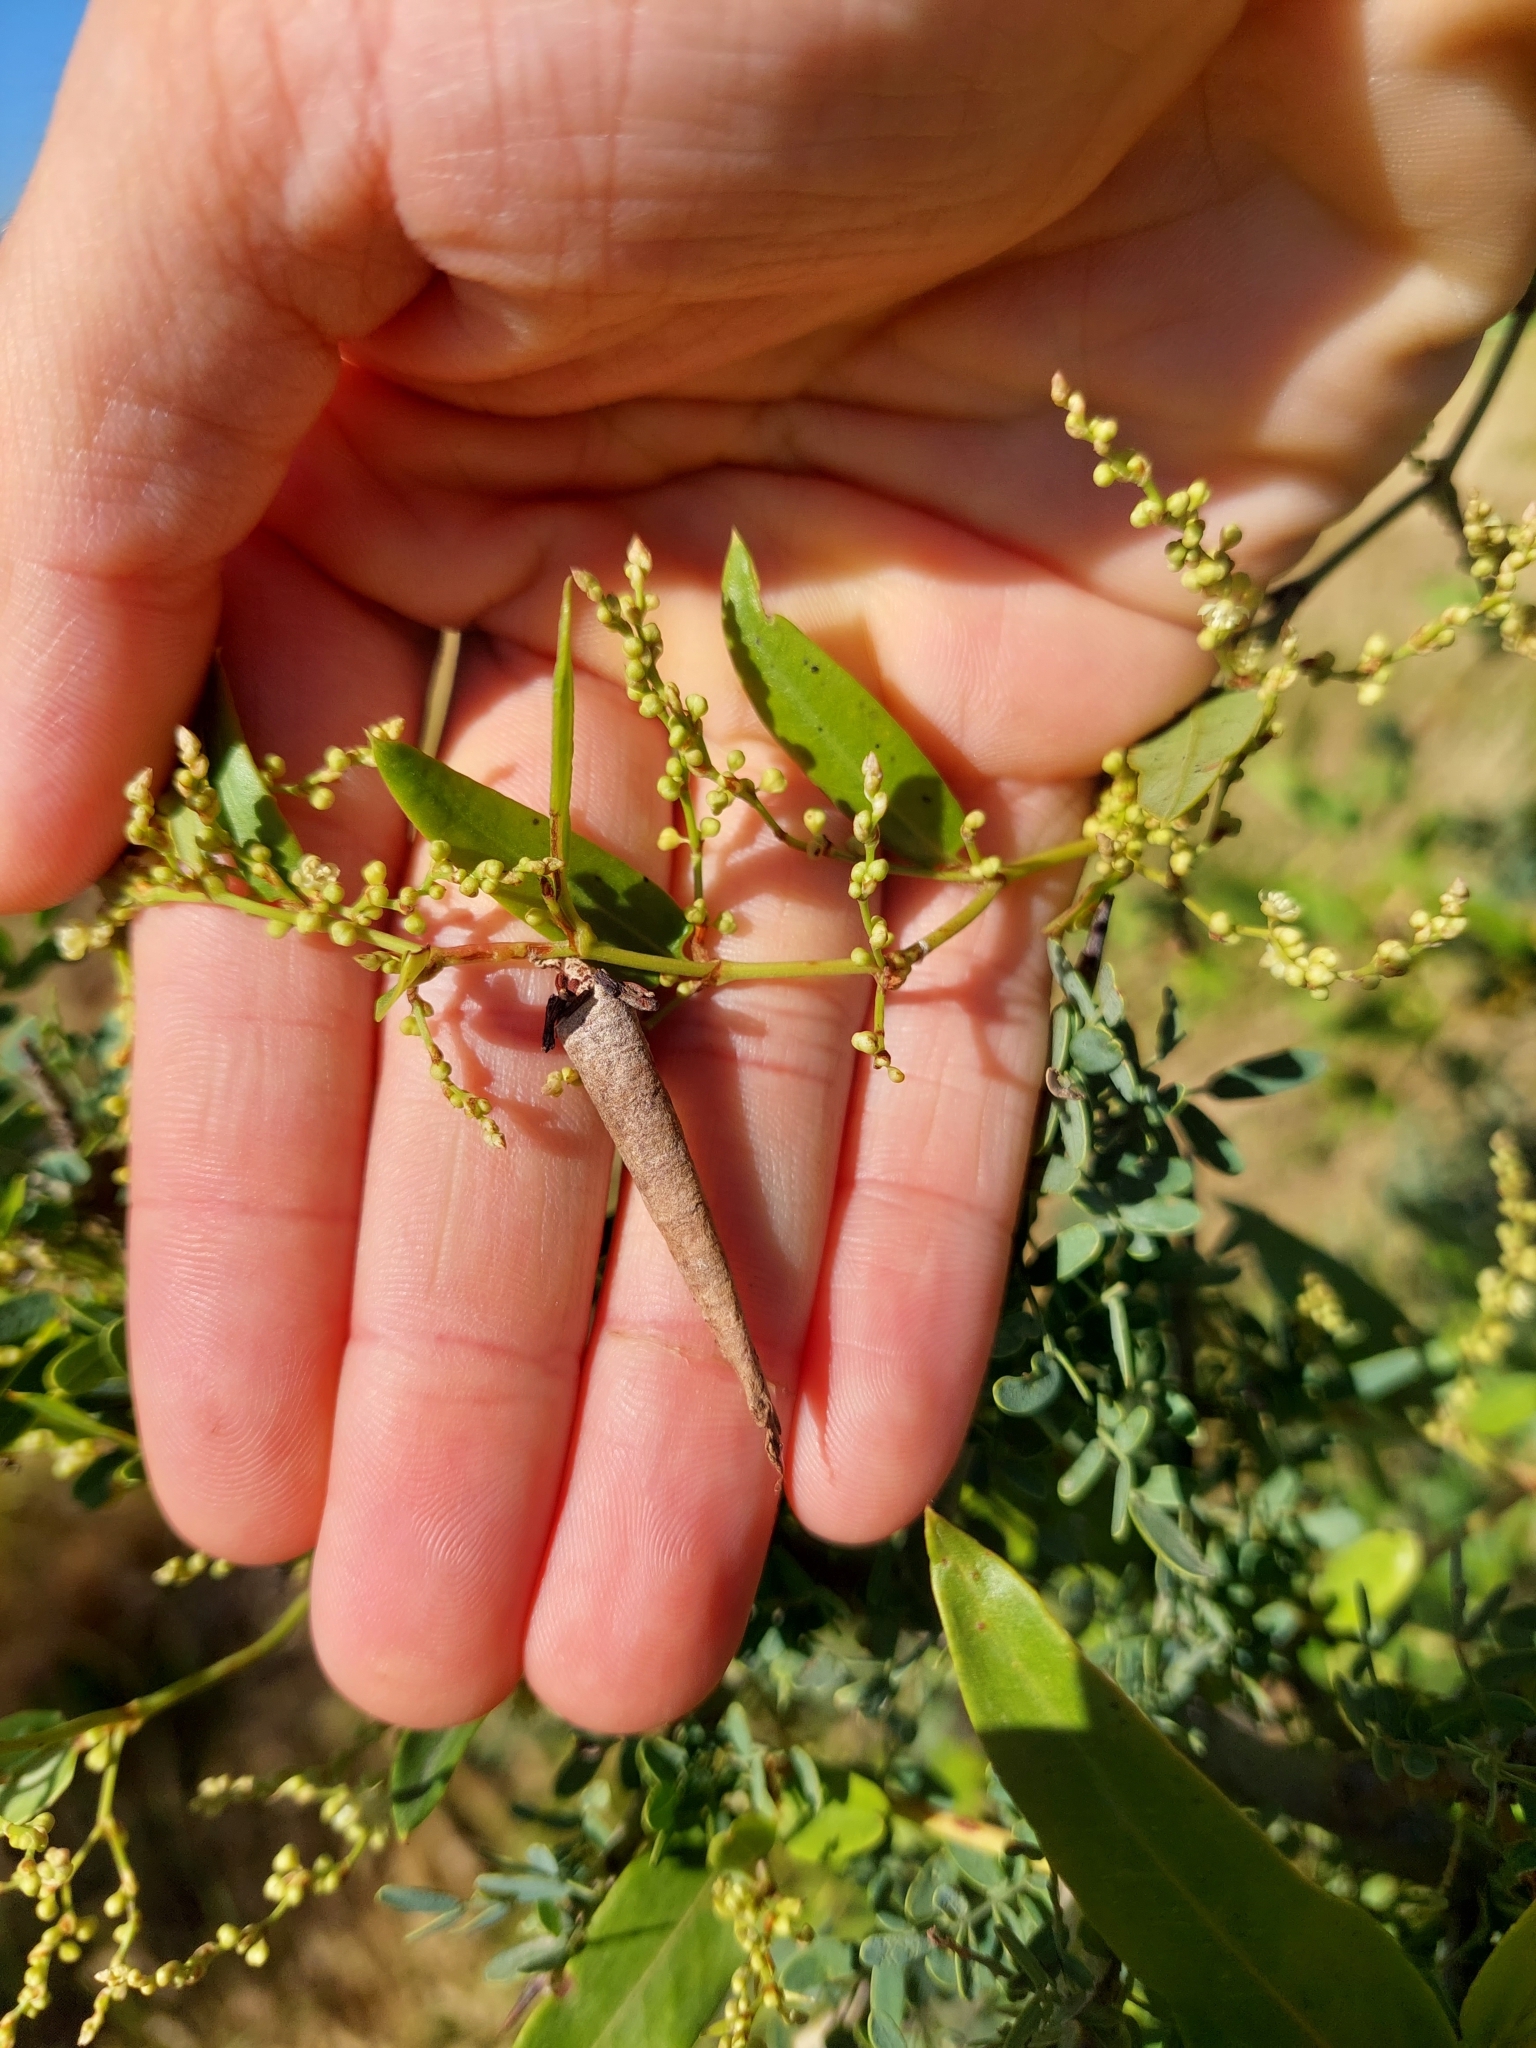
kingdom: Animalia
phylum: Arthropoda
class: Insecta
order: Lepidoptera
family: Psychidae
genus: Oiketicus
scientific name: Oiketicus geyeri
